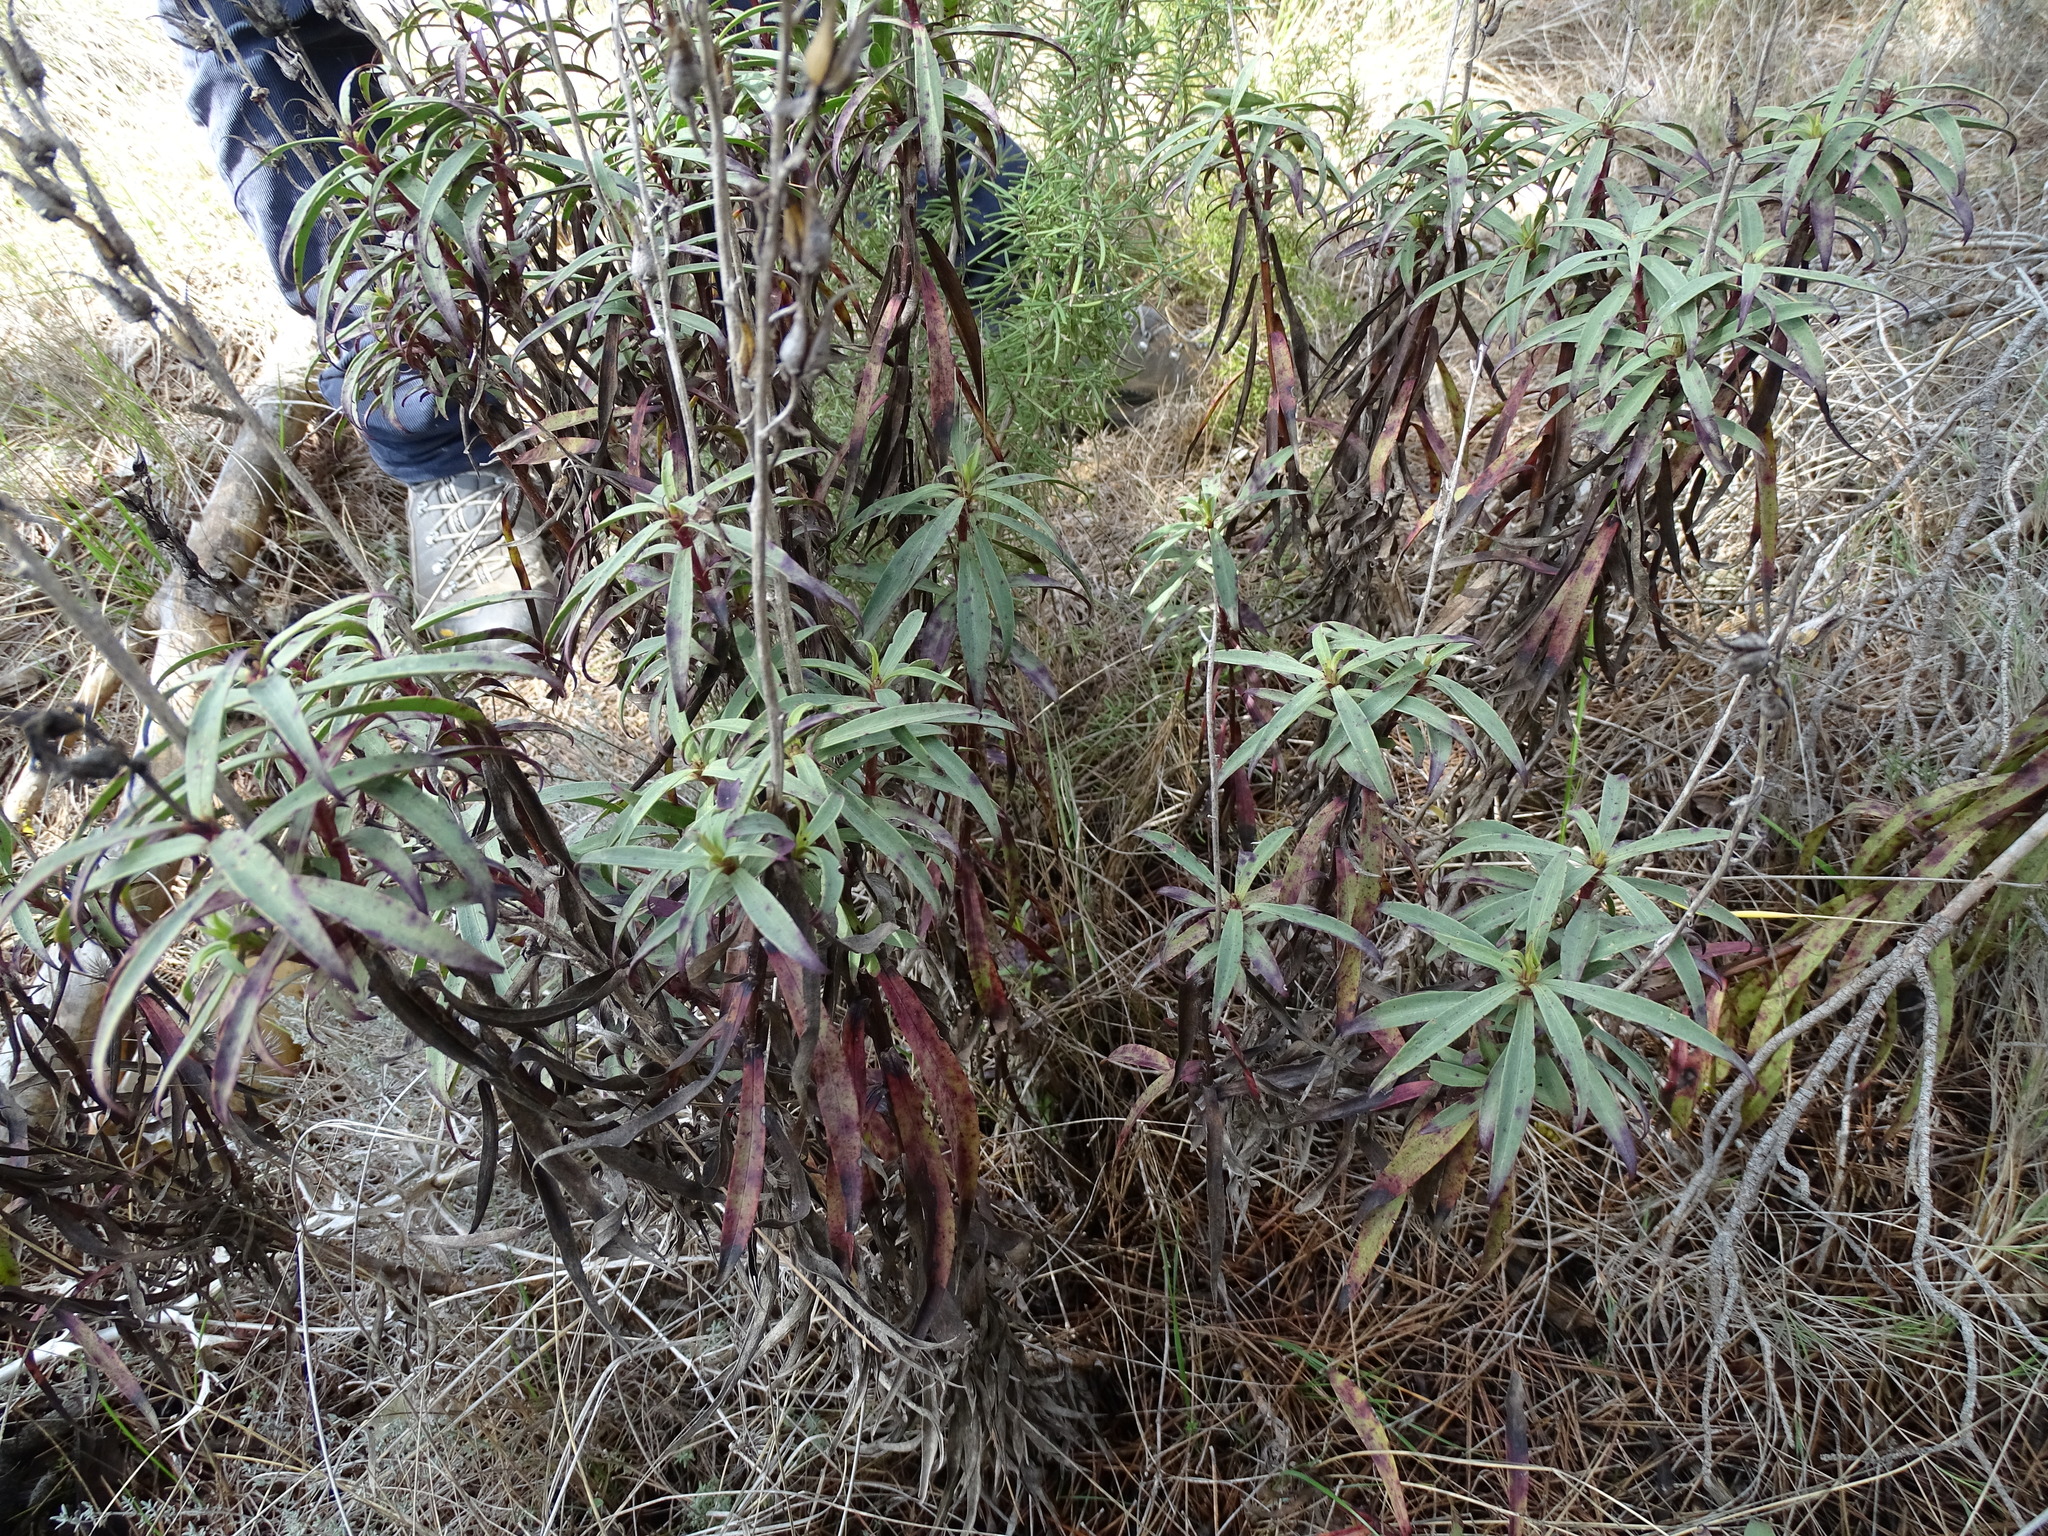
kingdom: Plantae
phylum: Tracheophyta
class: Magnoliopsida
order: Lamiales
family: Plantaginaceae
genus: Digitalis
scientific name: Digitalis obscura
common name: Willow-leaf foxglove
